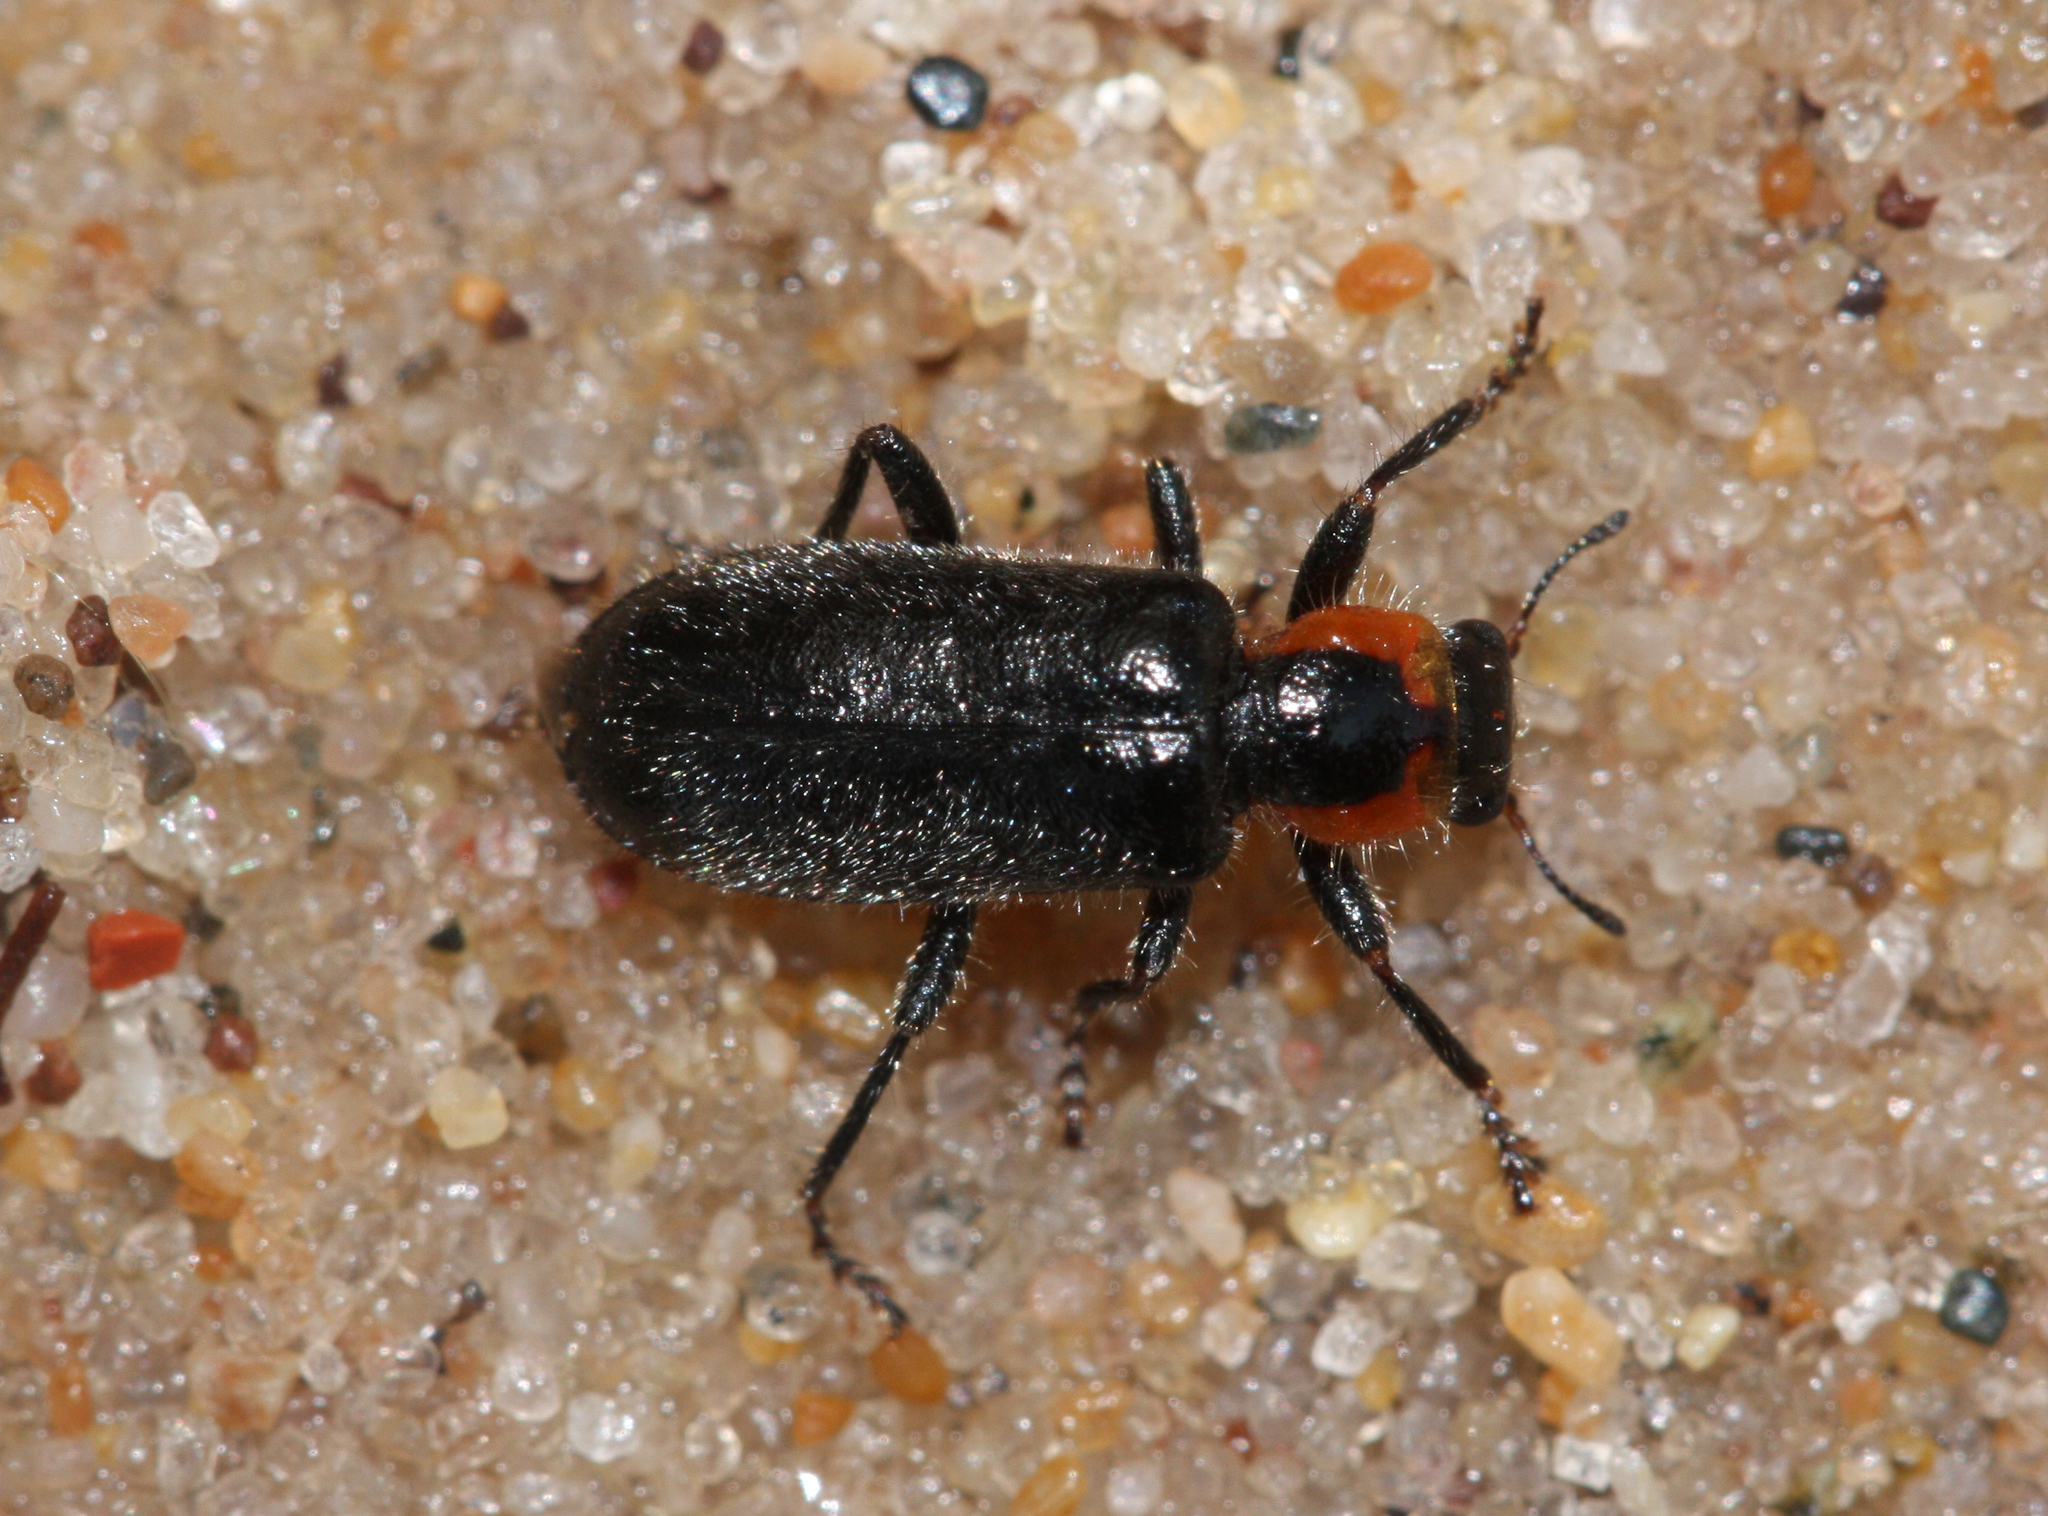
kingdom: Animalia
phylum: Arthropoda
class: Insecta
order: Coleoptera
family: Cleridae
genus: Placopterus
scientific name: Placopterus thoracicus
